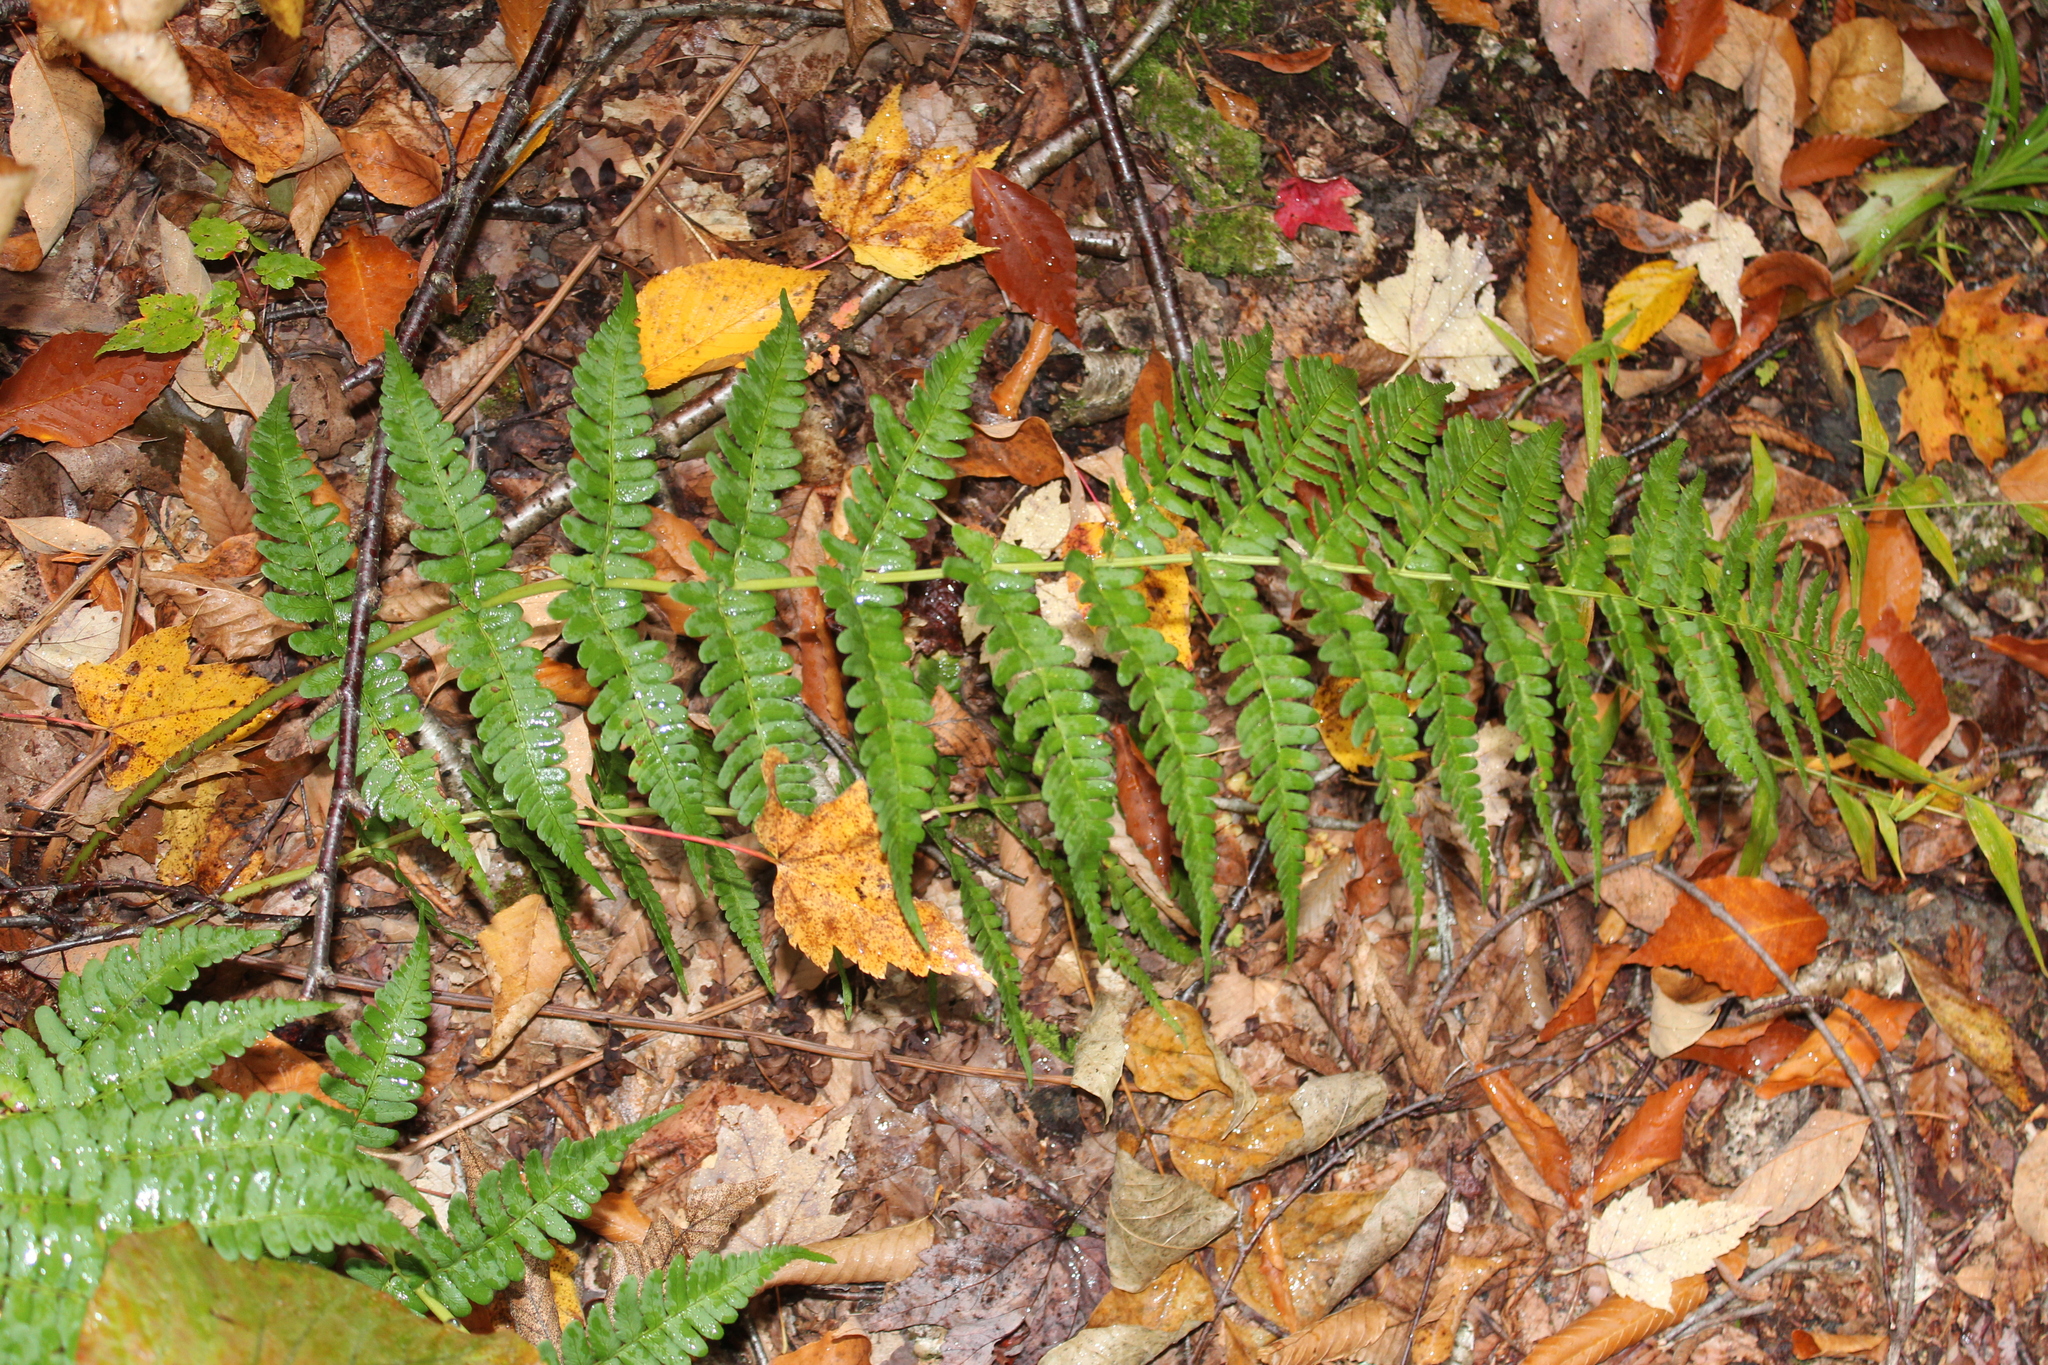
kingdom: Plantae
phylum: Tracheophyta
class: Polypodiopsida
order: Polypodiales
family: Dryopteridaceae
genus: Dryopteris
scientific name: Dryopteris marginalis
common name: Marginal wood fern
